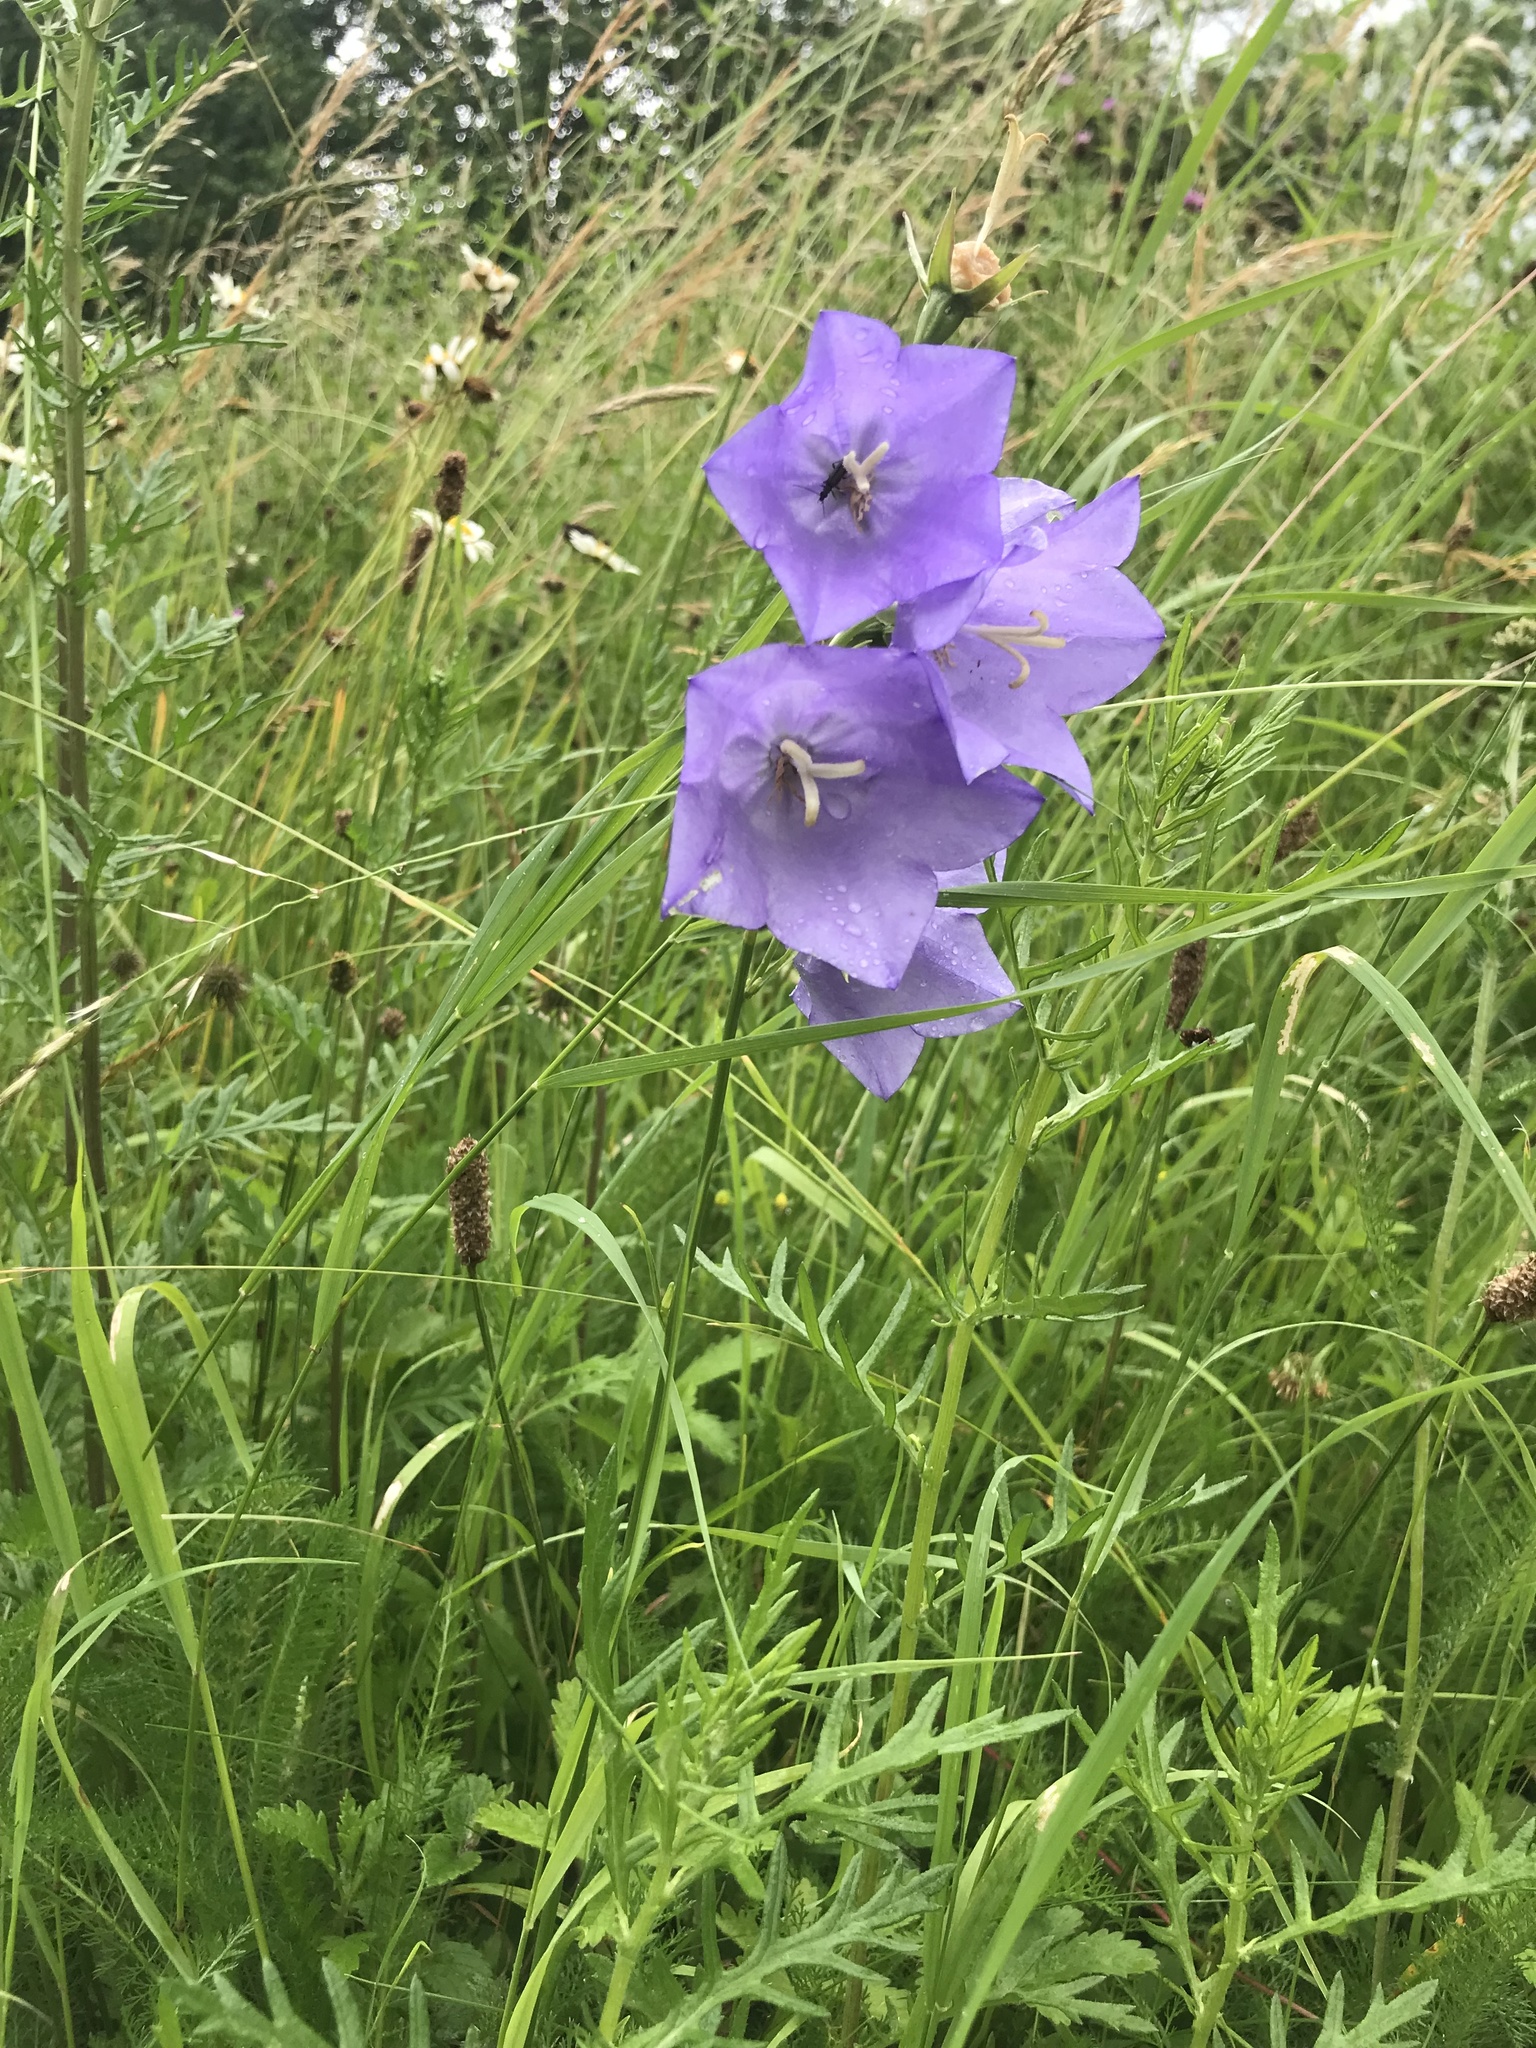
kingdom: Plantae
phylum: Tracheophyta
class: Magnoliopsida
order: Asterales
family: Campanulaceae
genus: Campanula
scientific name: Campanula persicifolia
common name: Peach-leaved bellflower
